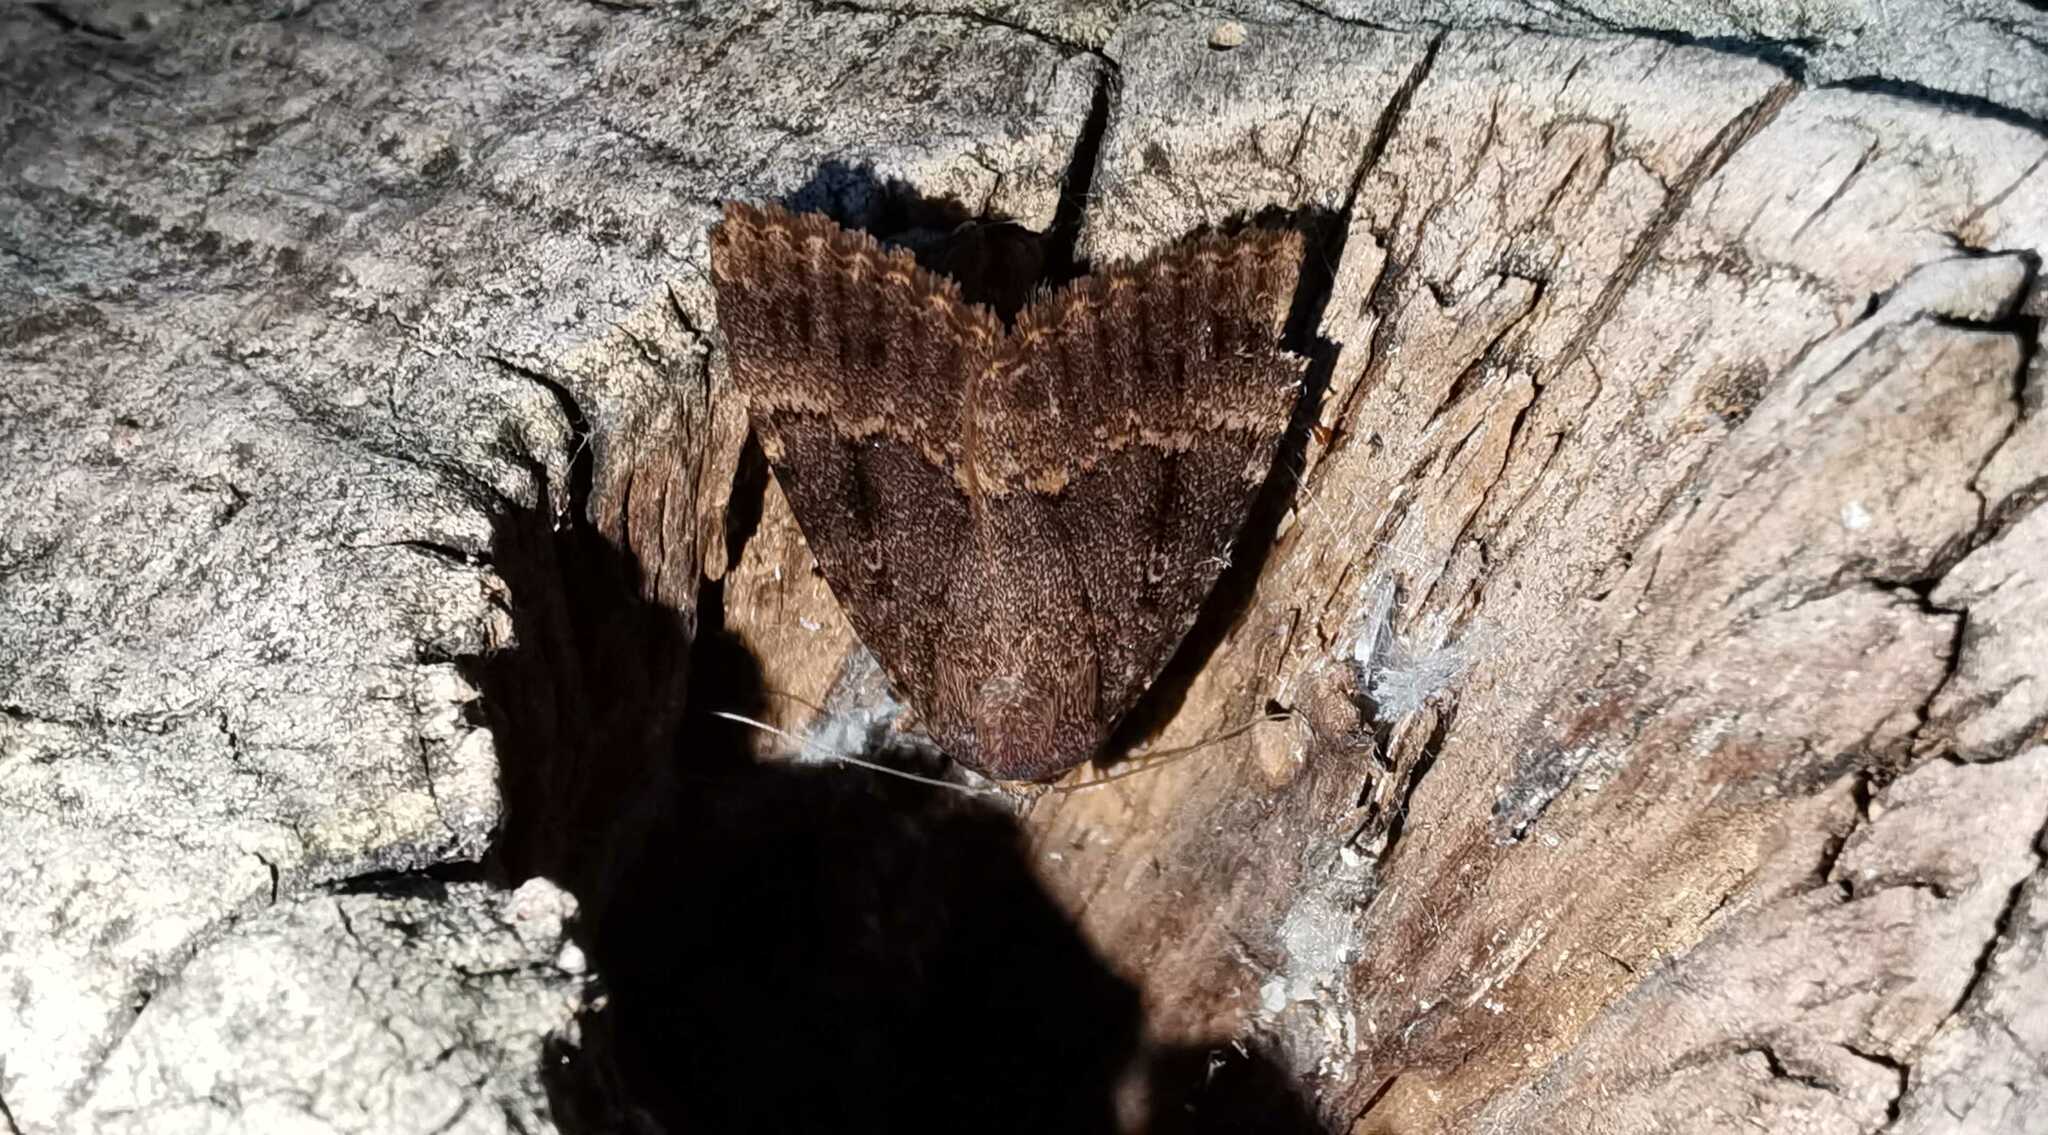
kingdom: Animalia
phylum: Arthropoda
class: Insecta
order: Lepidoptera
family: Noctuidae
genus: Amphipyra
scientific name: Amphipyra
